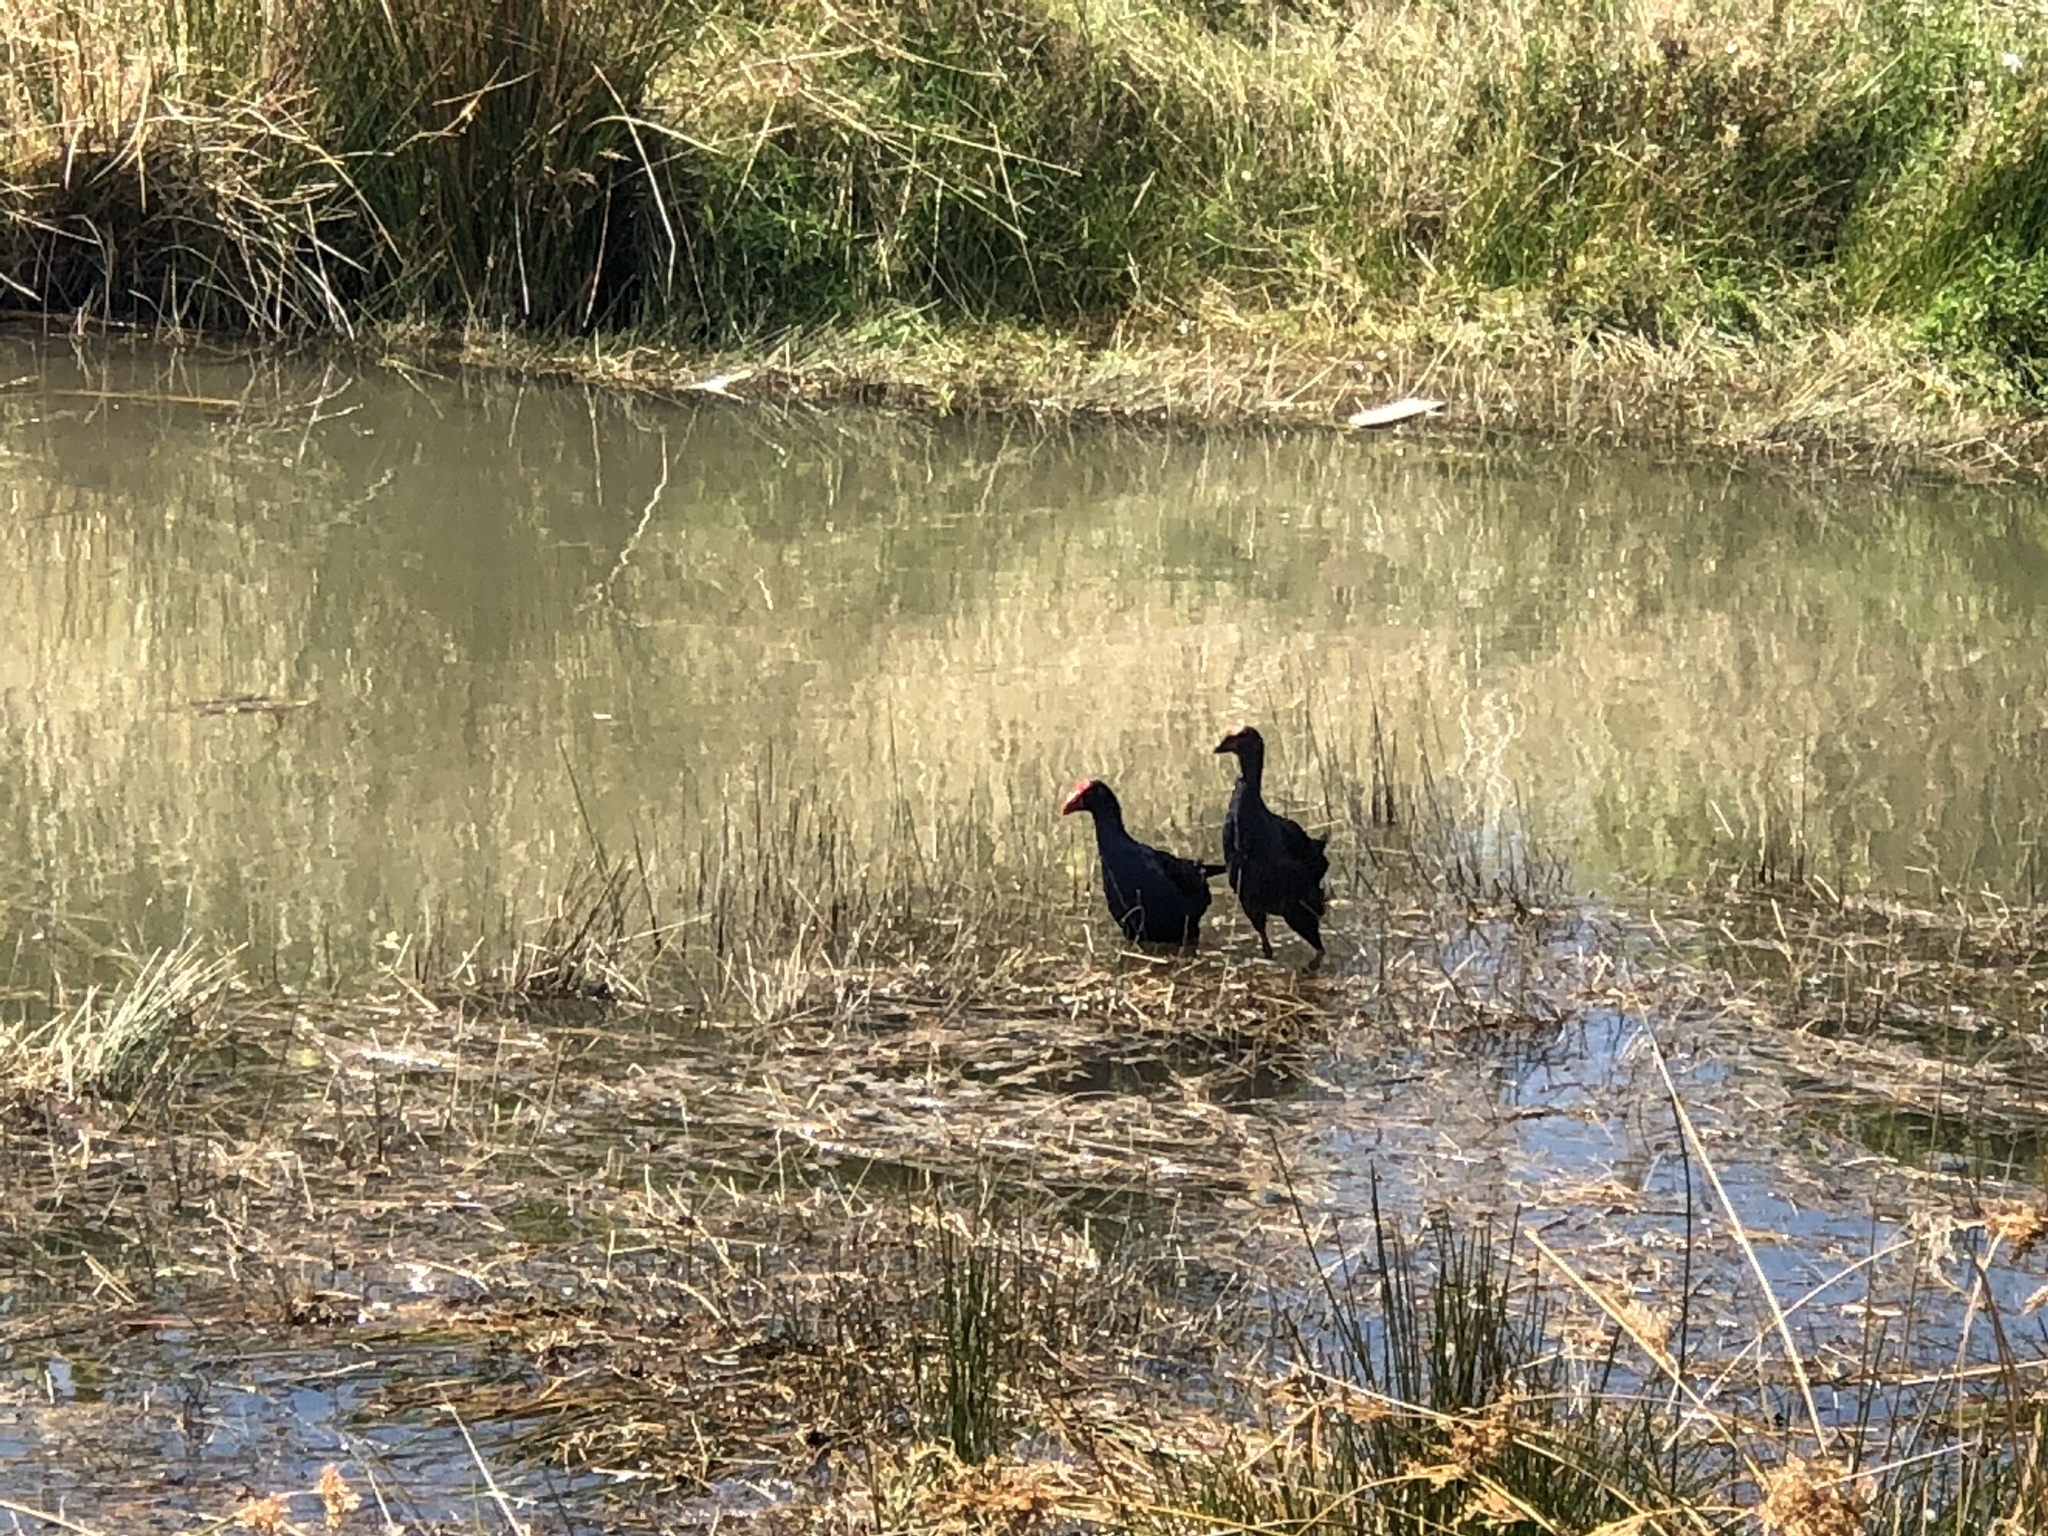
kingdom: Animalia
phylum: Chordata
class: Aves
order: Gruiformes
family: Rallidae
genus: Porphyrio
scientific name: Porphyrio melanotus
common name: Australasian swamphen
